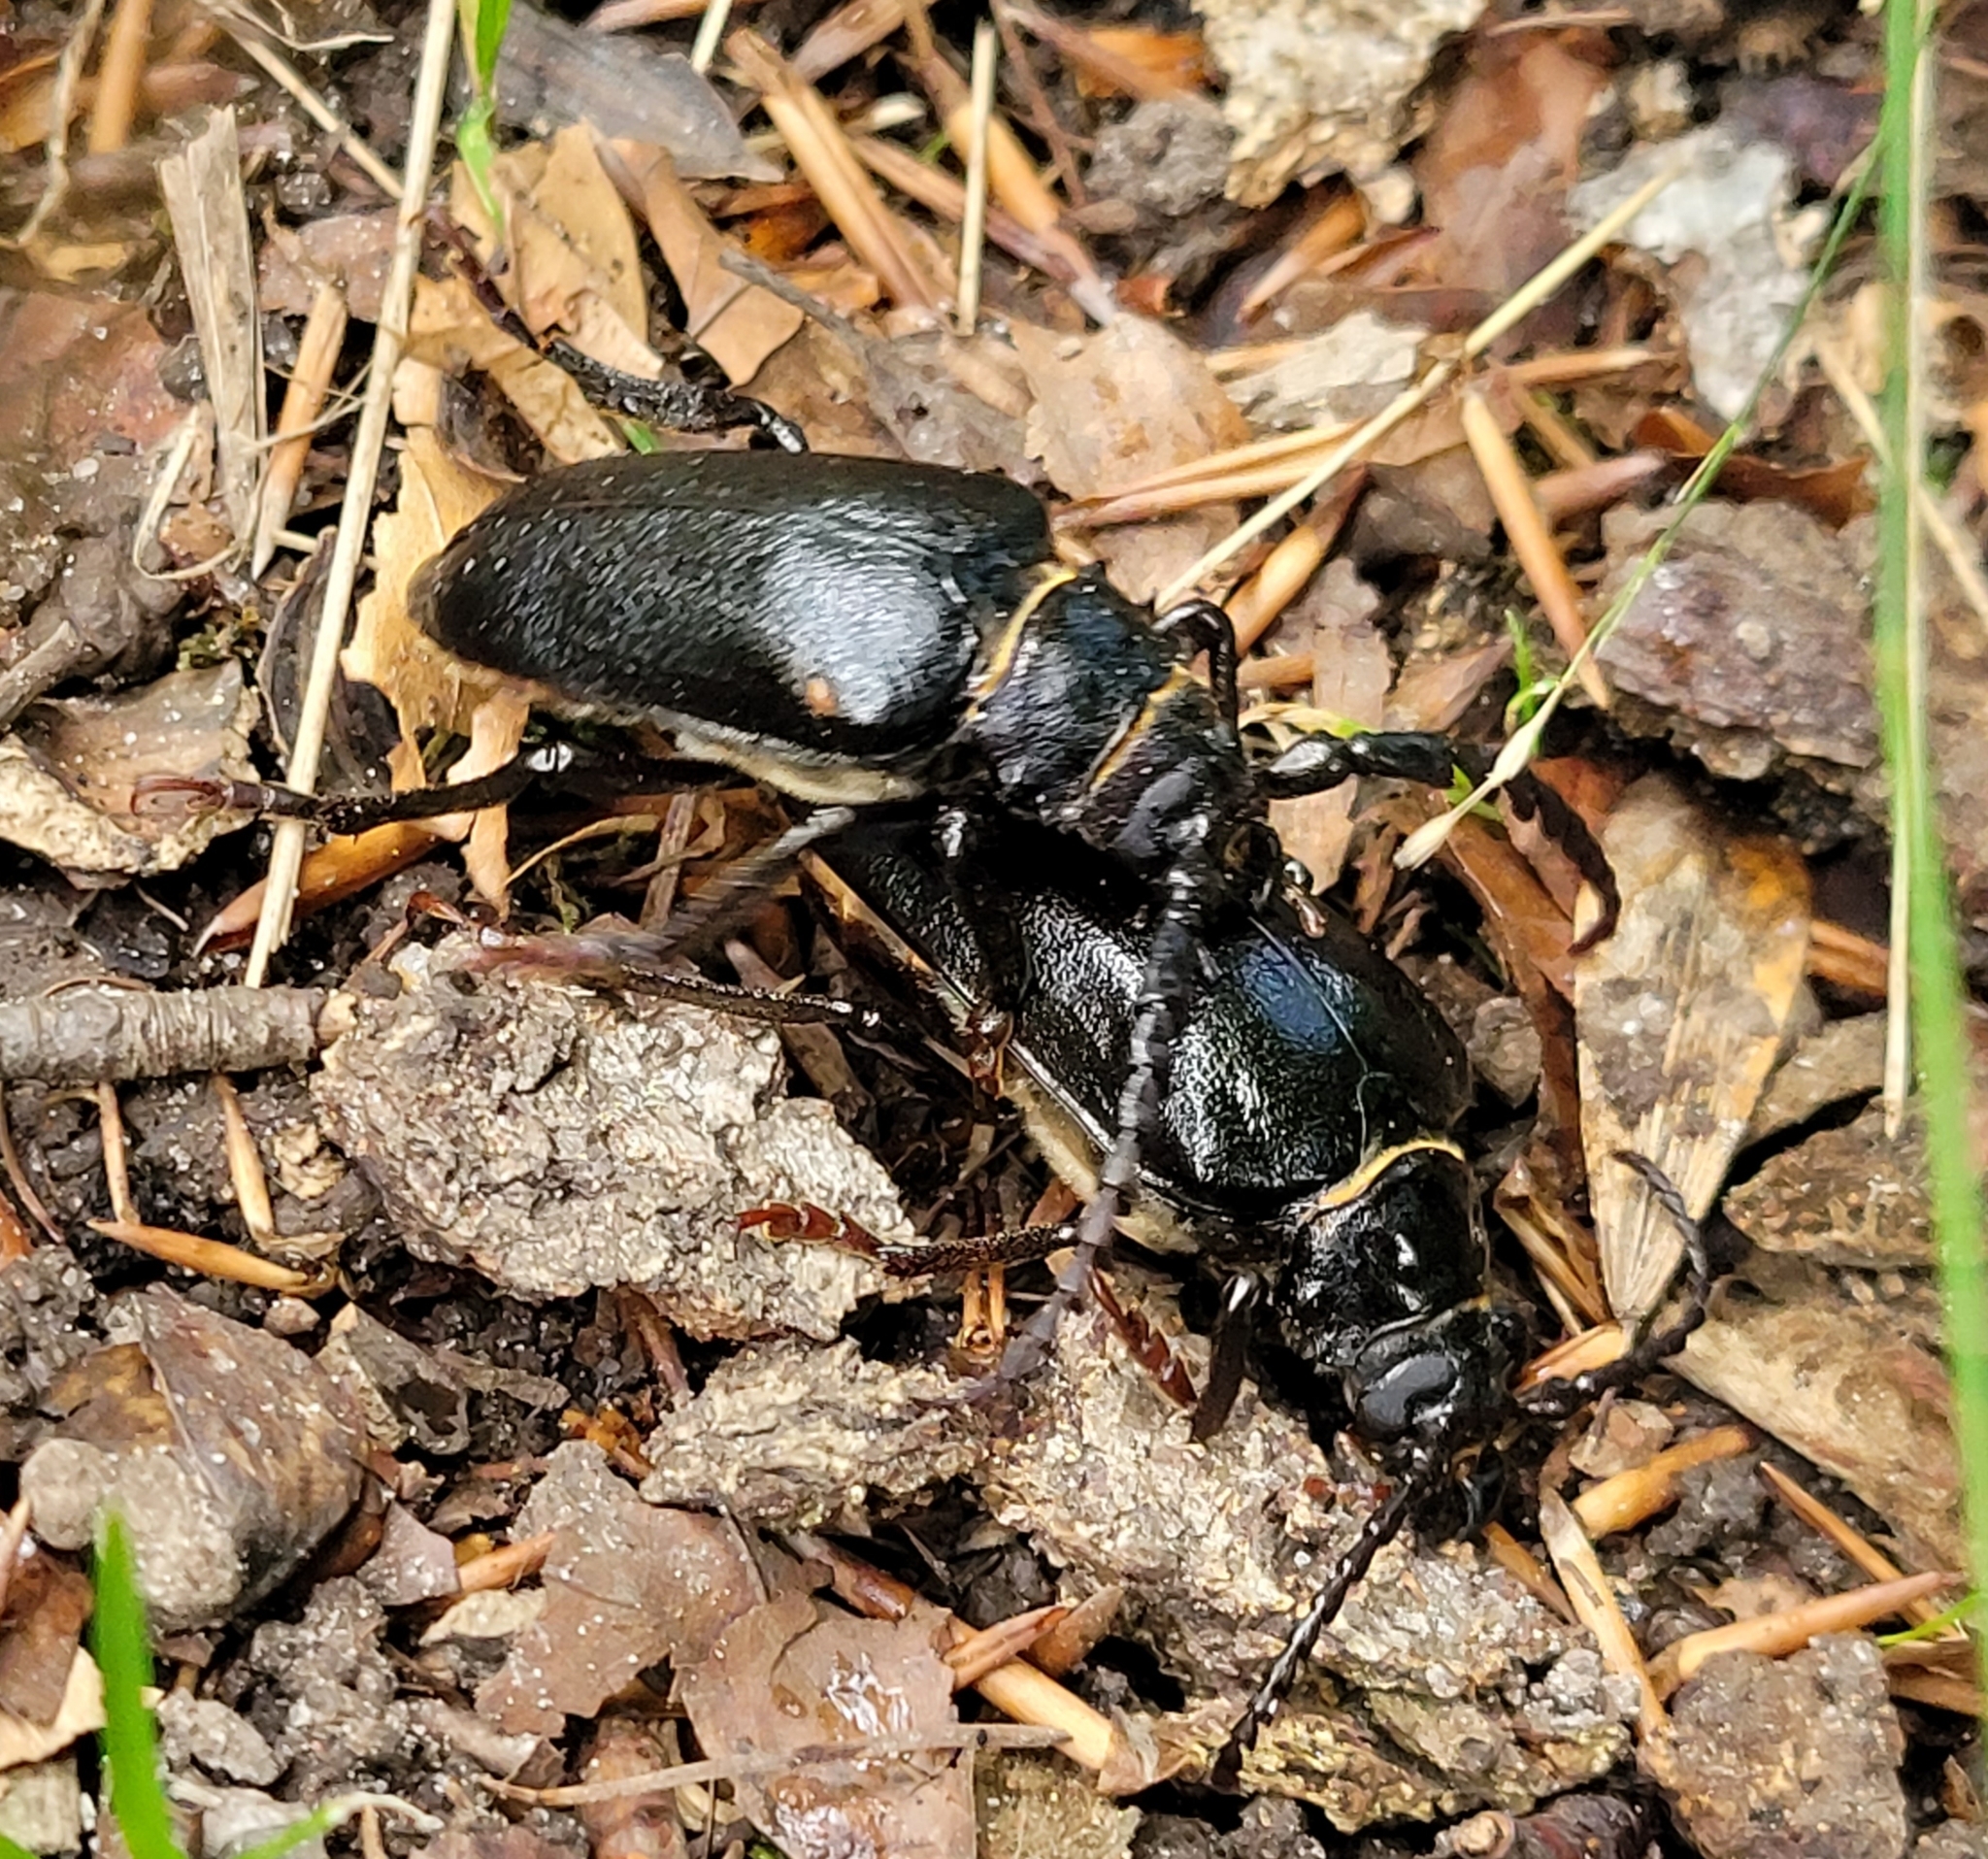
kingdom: Animalia
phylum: Arthropoda
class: Insecta
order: Coleoptera
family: Cerambycidae
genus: Prionus
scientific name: Prionus coriarius
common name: Tanner beetle
